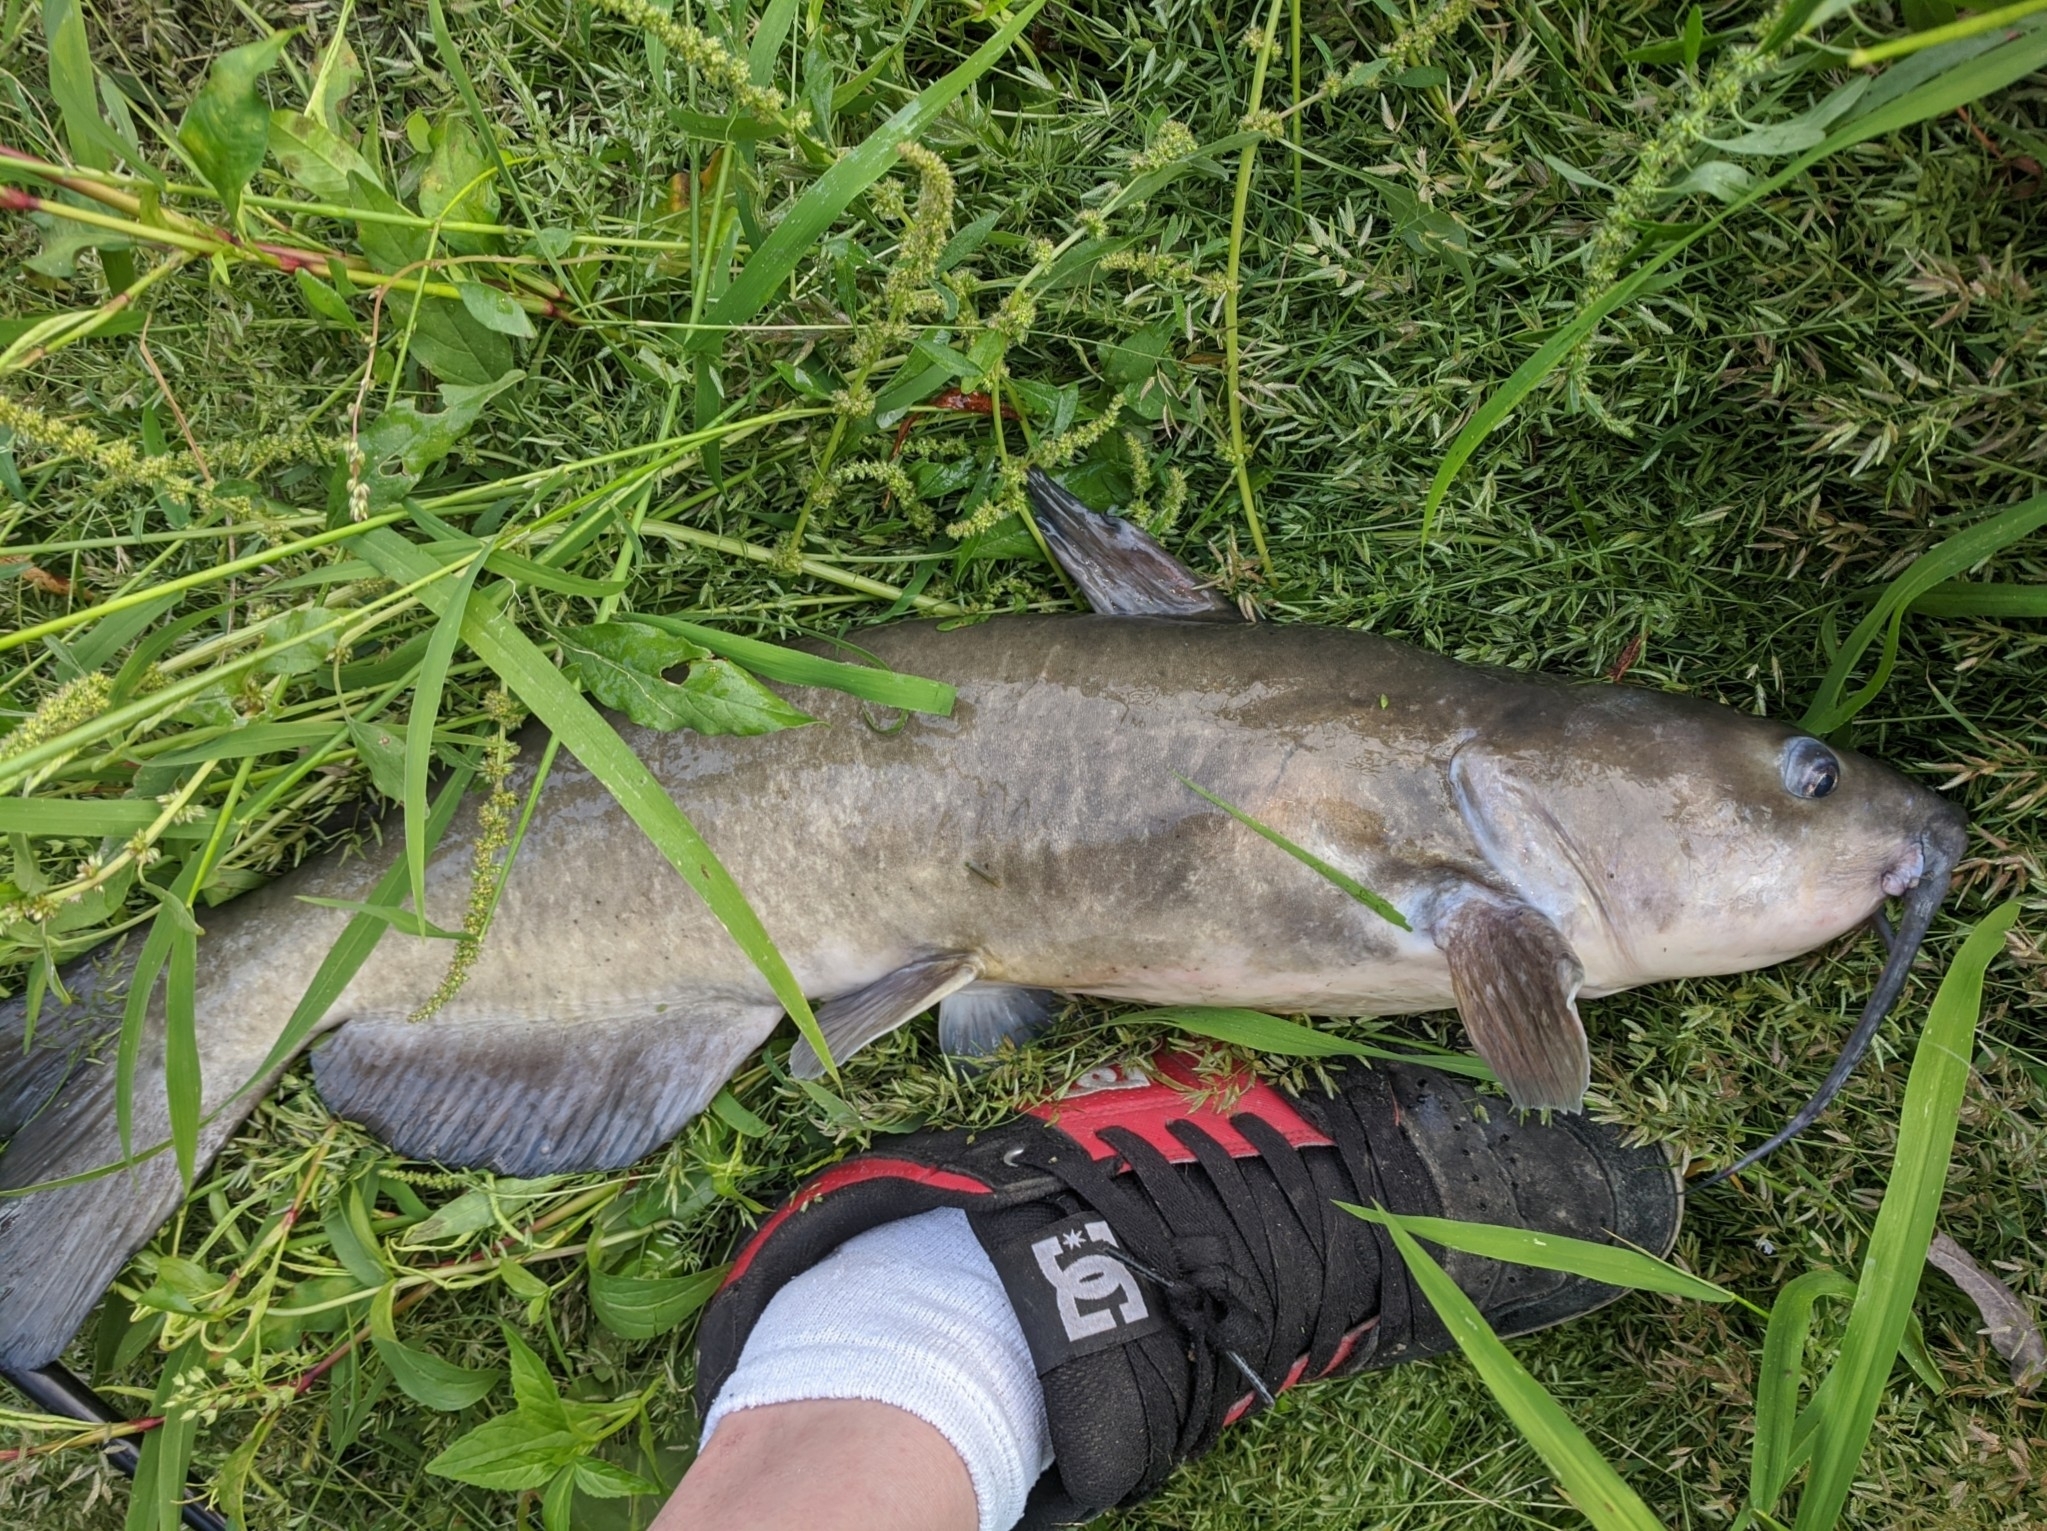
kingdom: Animalia
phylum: Chordata
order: Siluriformes
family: Ictaluridae
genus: Ictalurus
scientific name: Ictalurus punctatus
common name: Channel catfish
